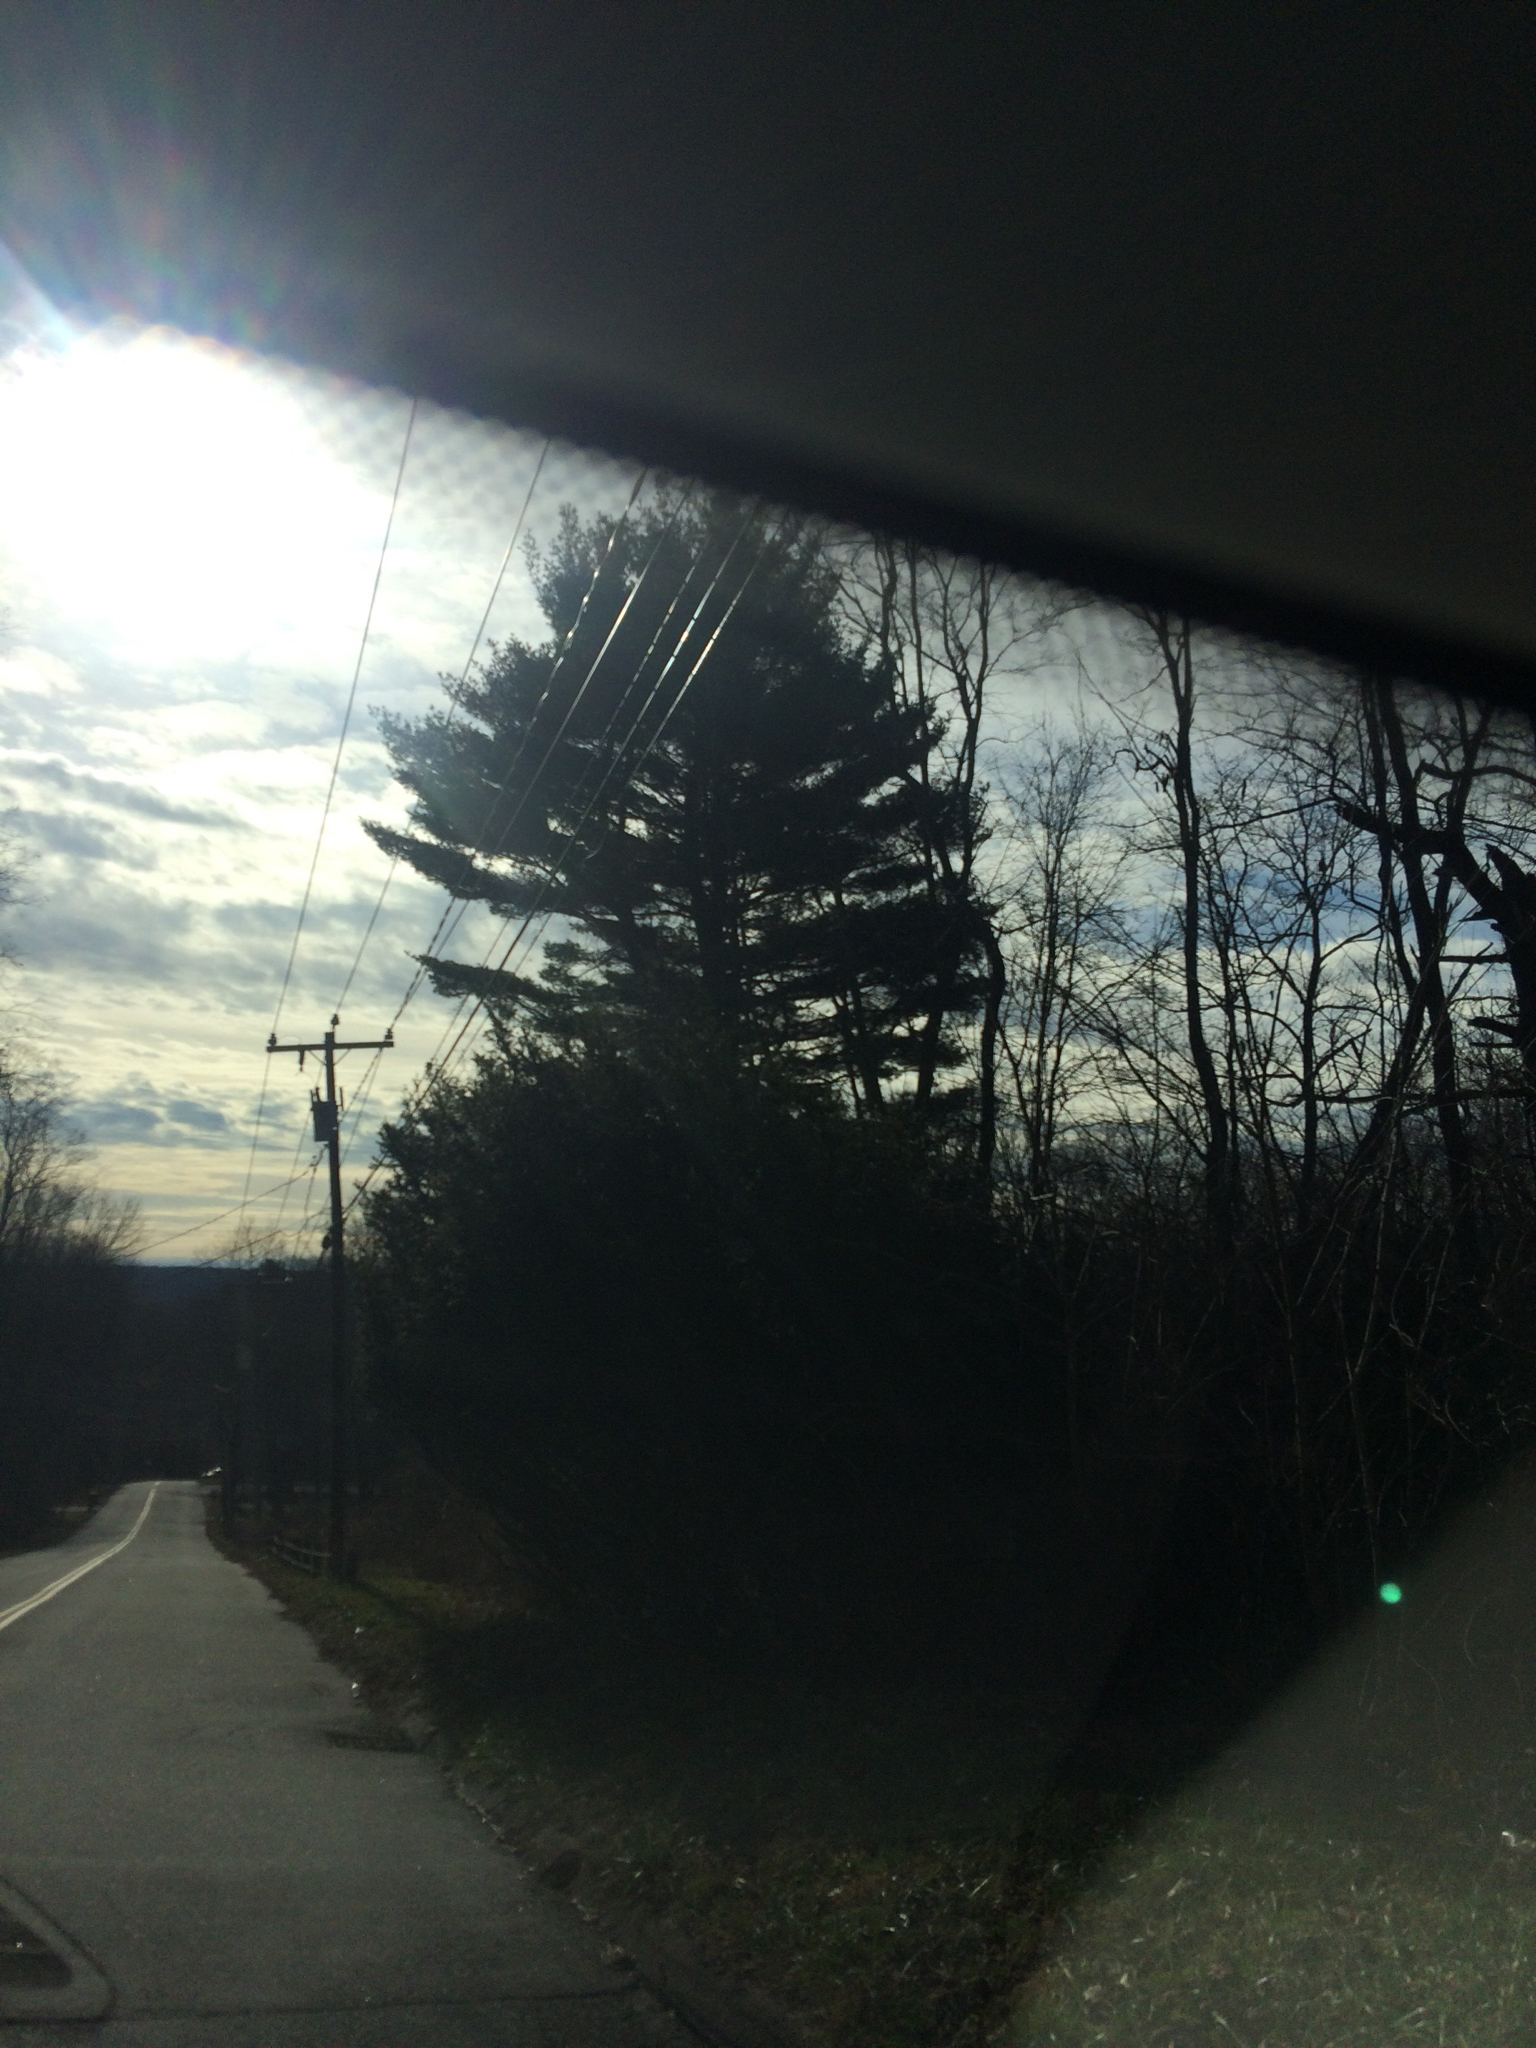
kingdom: Plantae
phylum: Tracheophyta
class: Pinopsida
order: Pinales
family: Pinaceae
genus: Pinus
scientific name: Pinus strobus
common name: Weymouth pine
